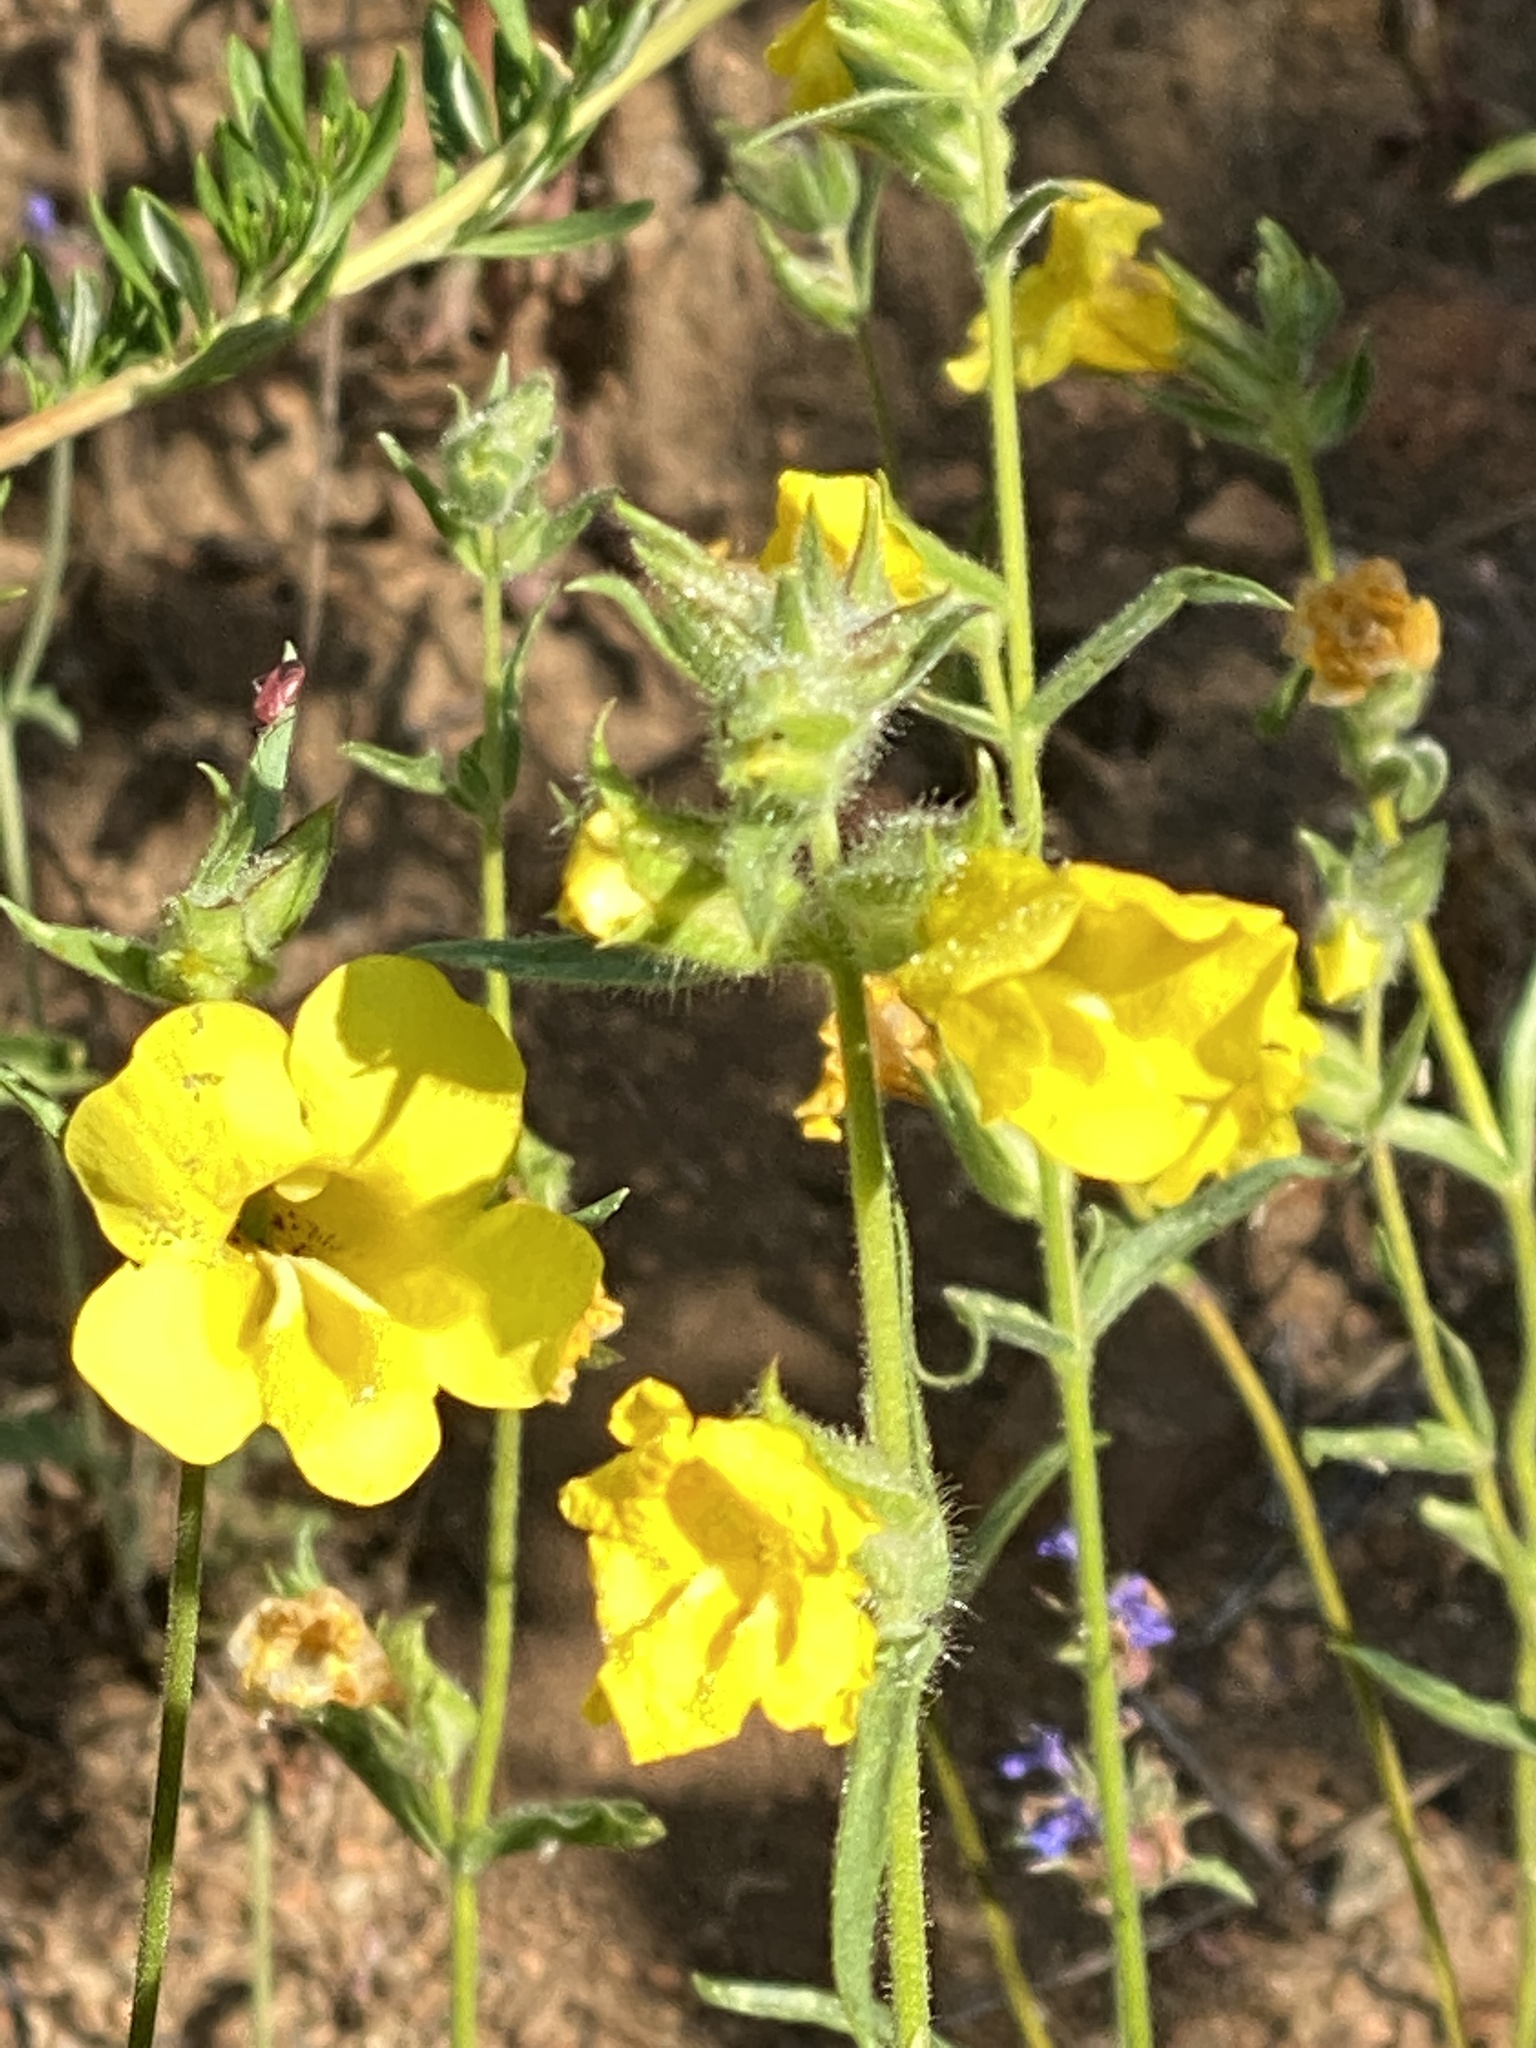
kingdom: Plantae
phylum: Tracheophyta
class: Magnoliopsida
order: Lamiales
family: Phrymaceae
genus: Diplacus
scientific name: Diplacus brevipes
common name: Wide-throat yellow monkey-flower
